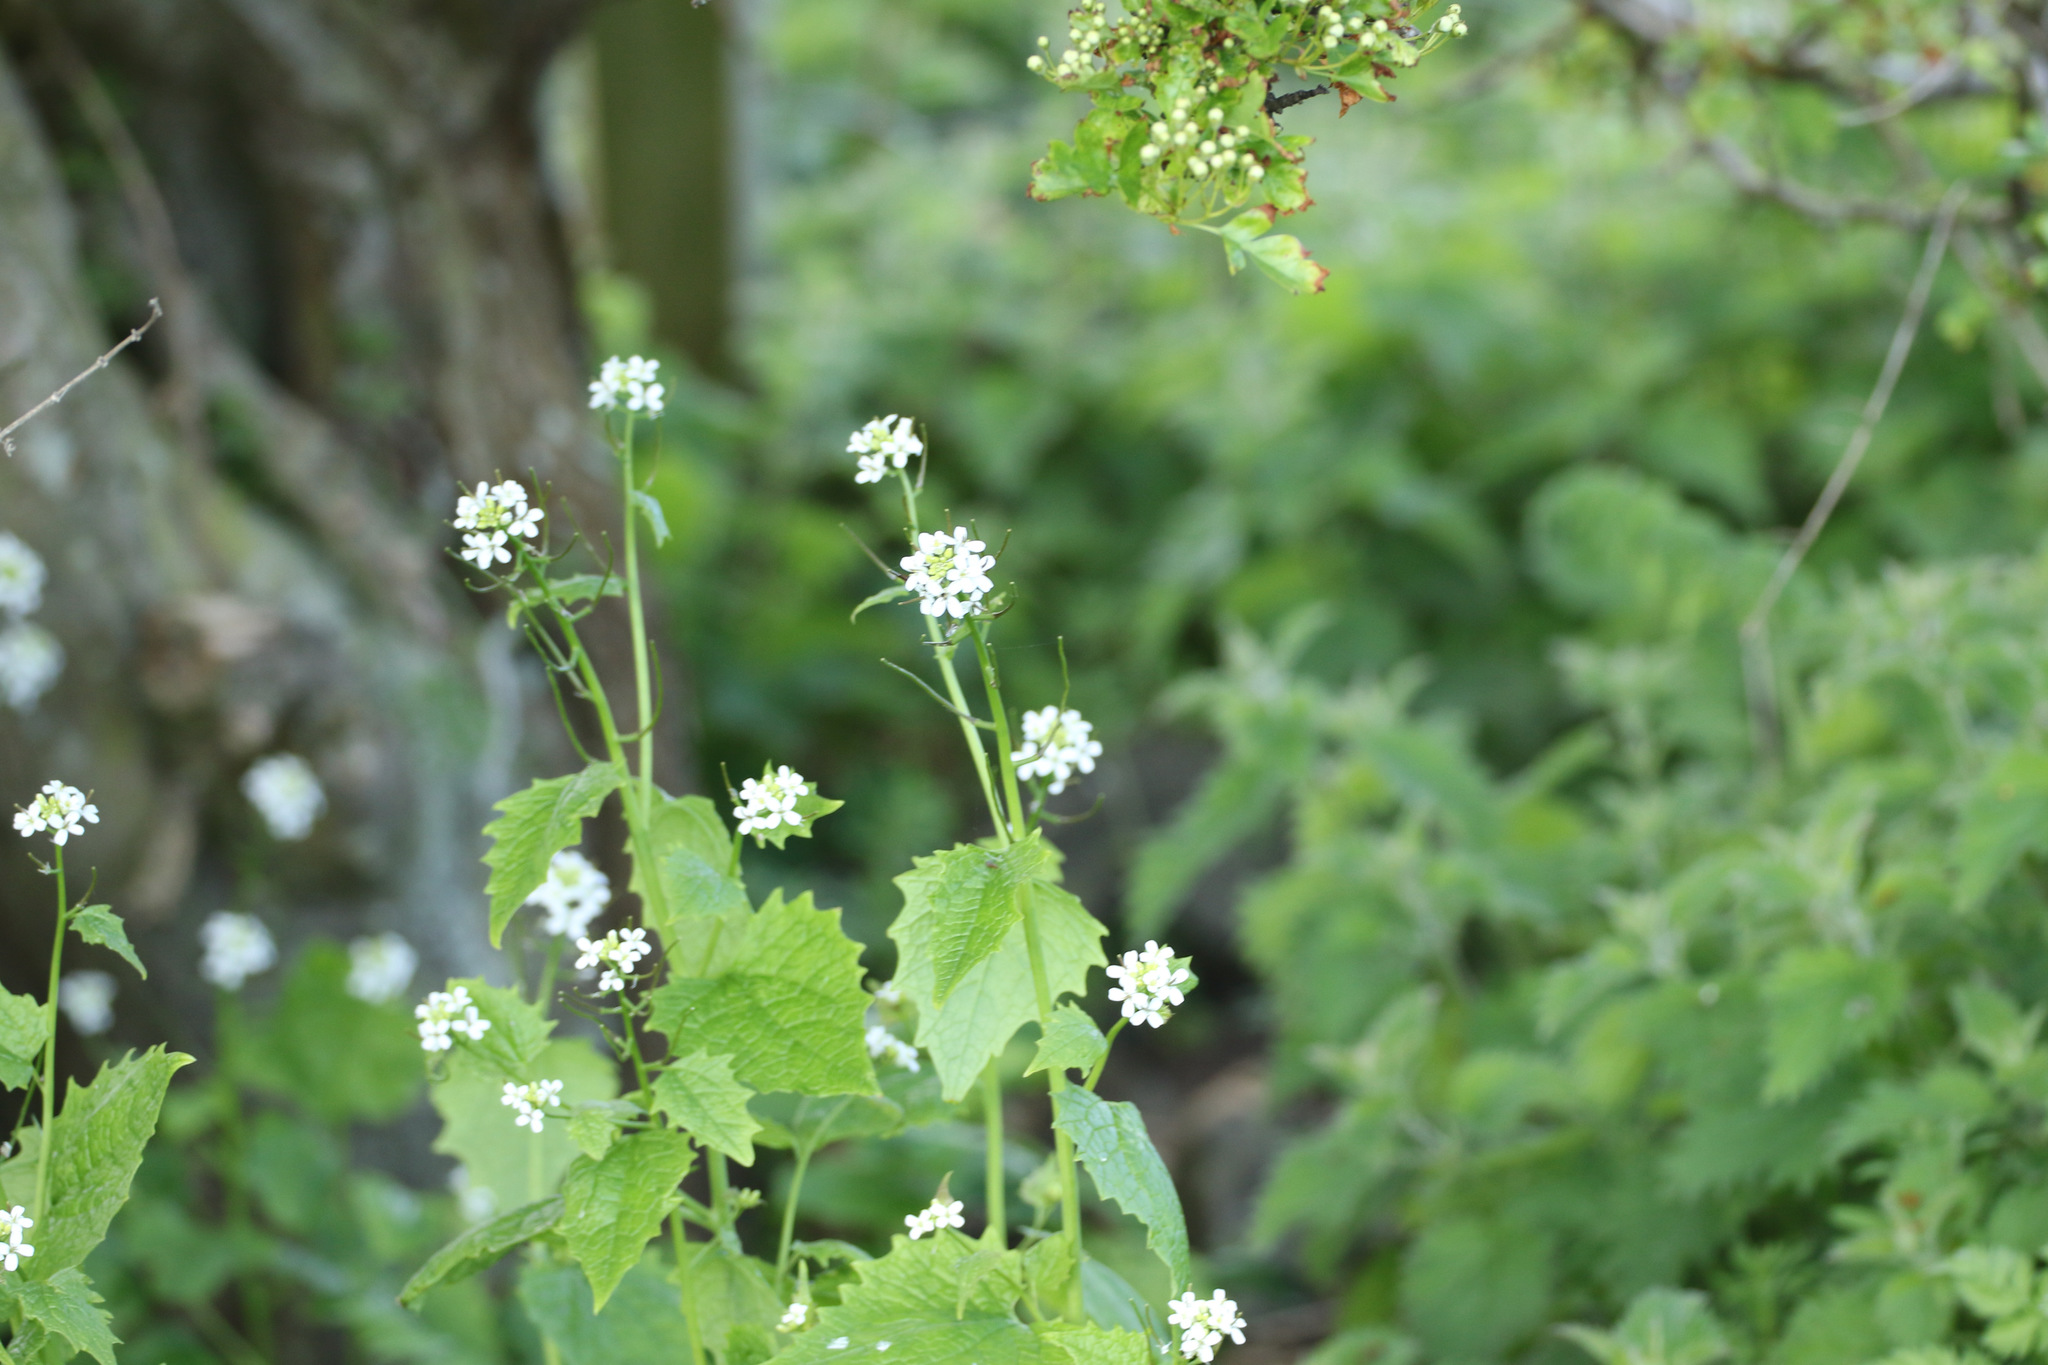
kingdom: Plantae
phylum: Tracheophyta
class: Magnoliopsida
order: Brassicales
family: Brassicaceae
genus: Alliaria
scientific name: Alliaria petiolata
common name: Garlic mustard
